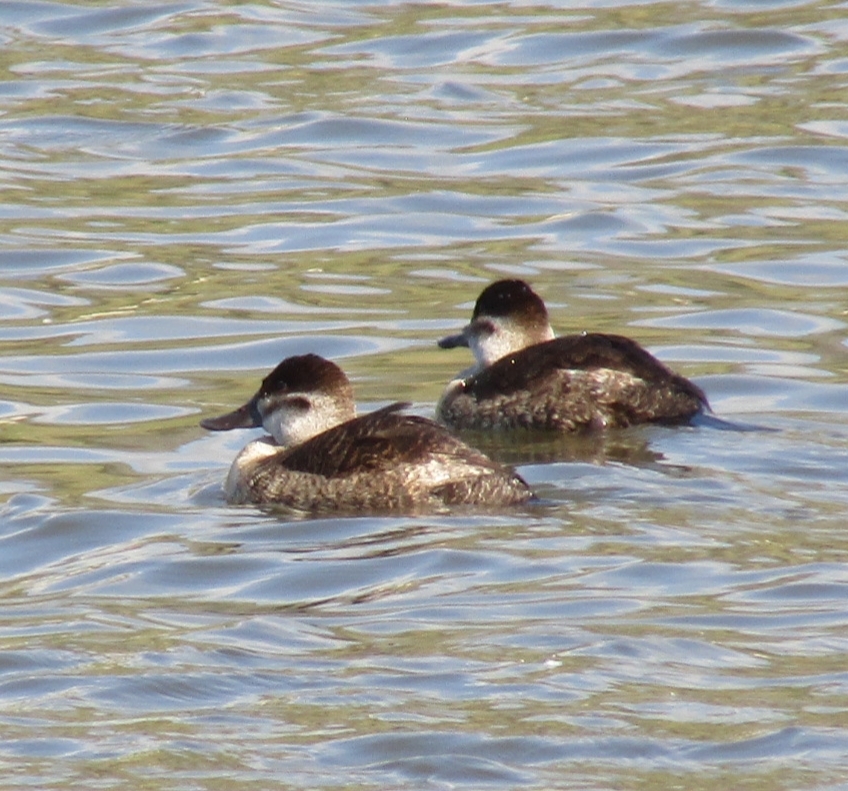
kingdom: Animalia
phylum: Chordata
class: Aves
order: Anseriformes
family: Anatidae
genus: Oxyura
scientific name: Oxyura jamaicensis
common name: Ruddy duck
